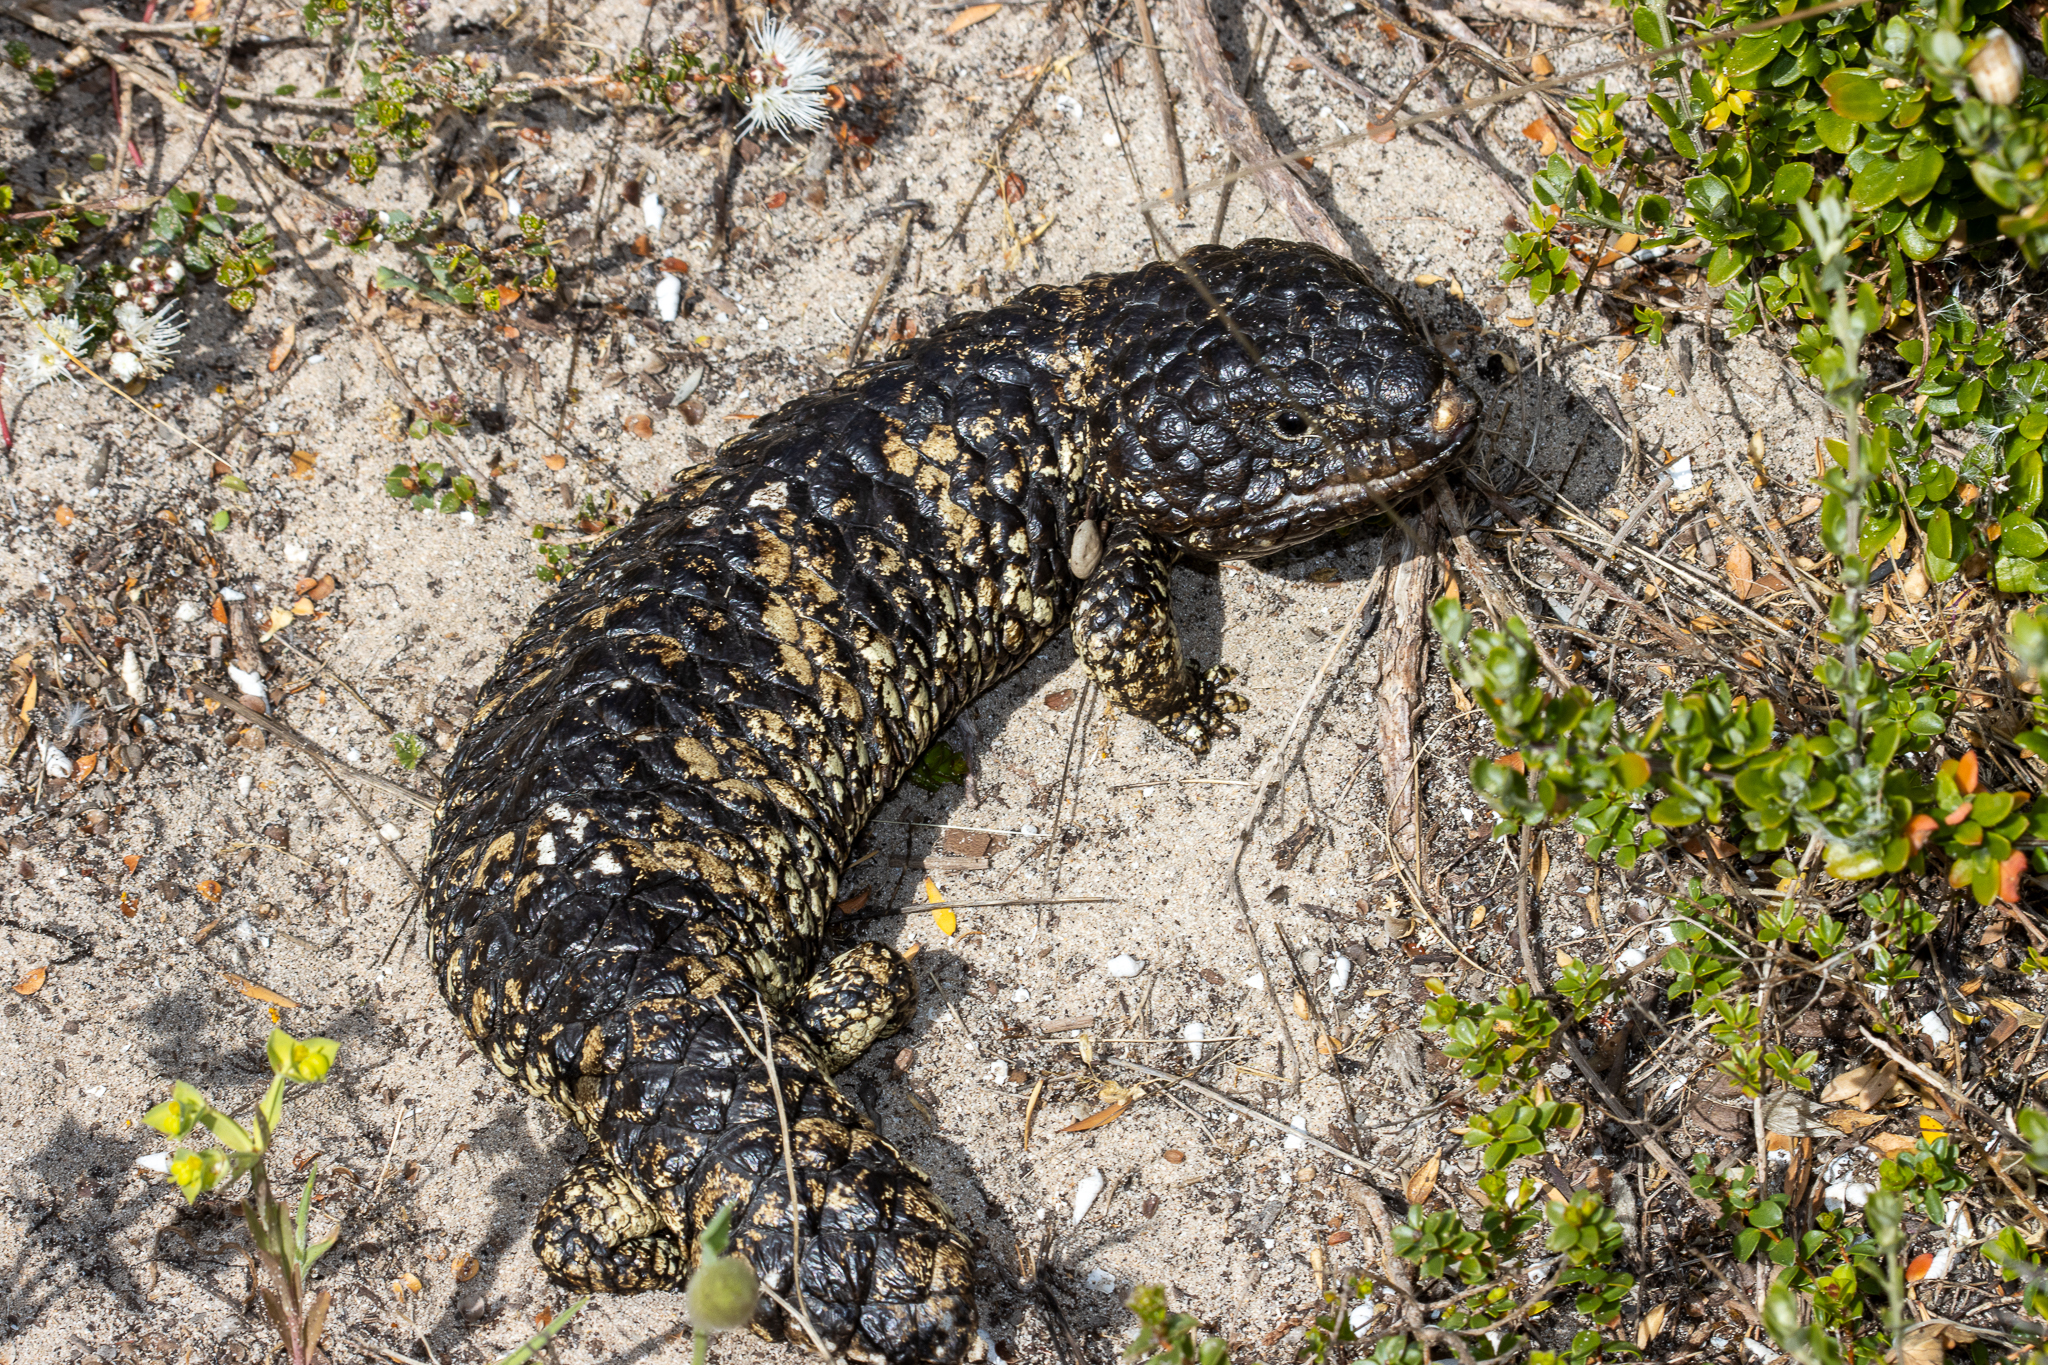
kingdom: Animalia
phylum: Chordata
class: Squamata
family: Scincidae
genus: Tiliqua
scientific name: Tiliqua rugosa
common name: Pinecone lizard
